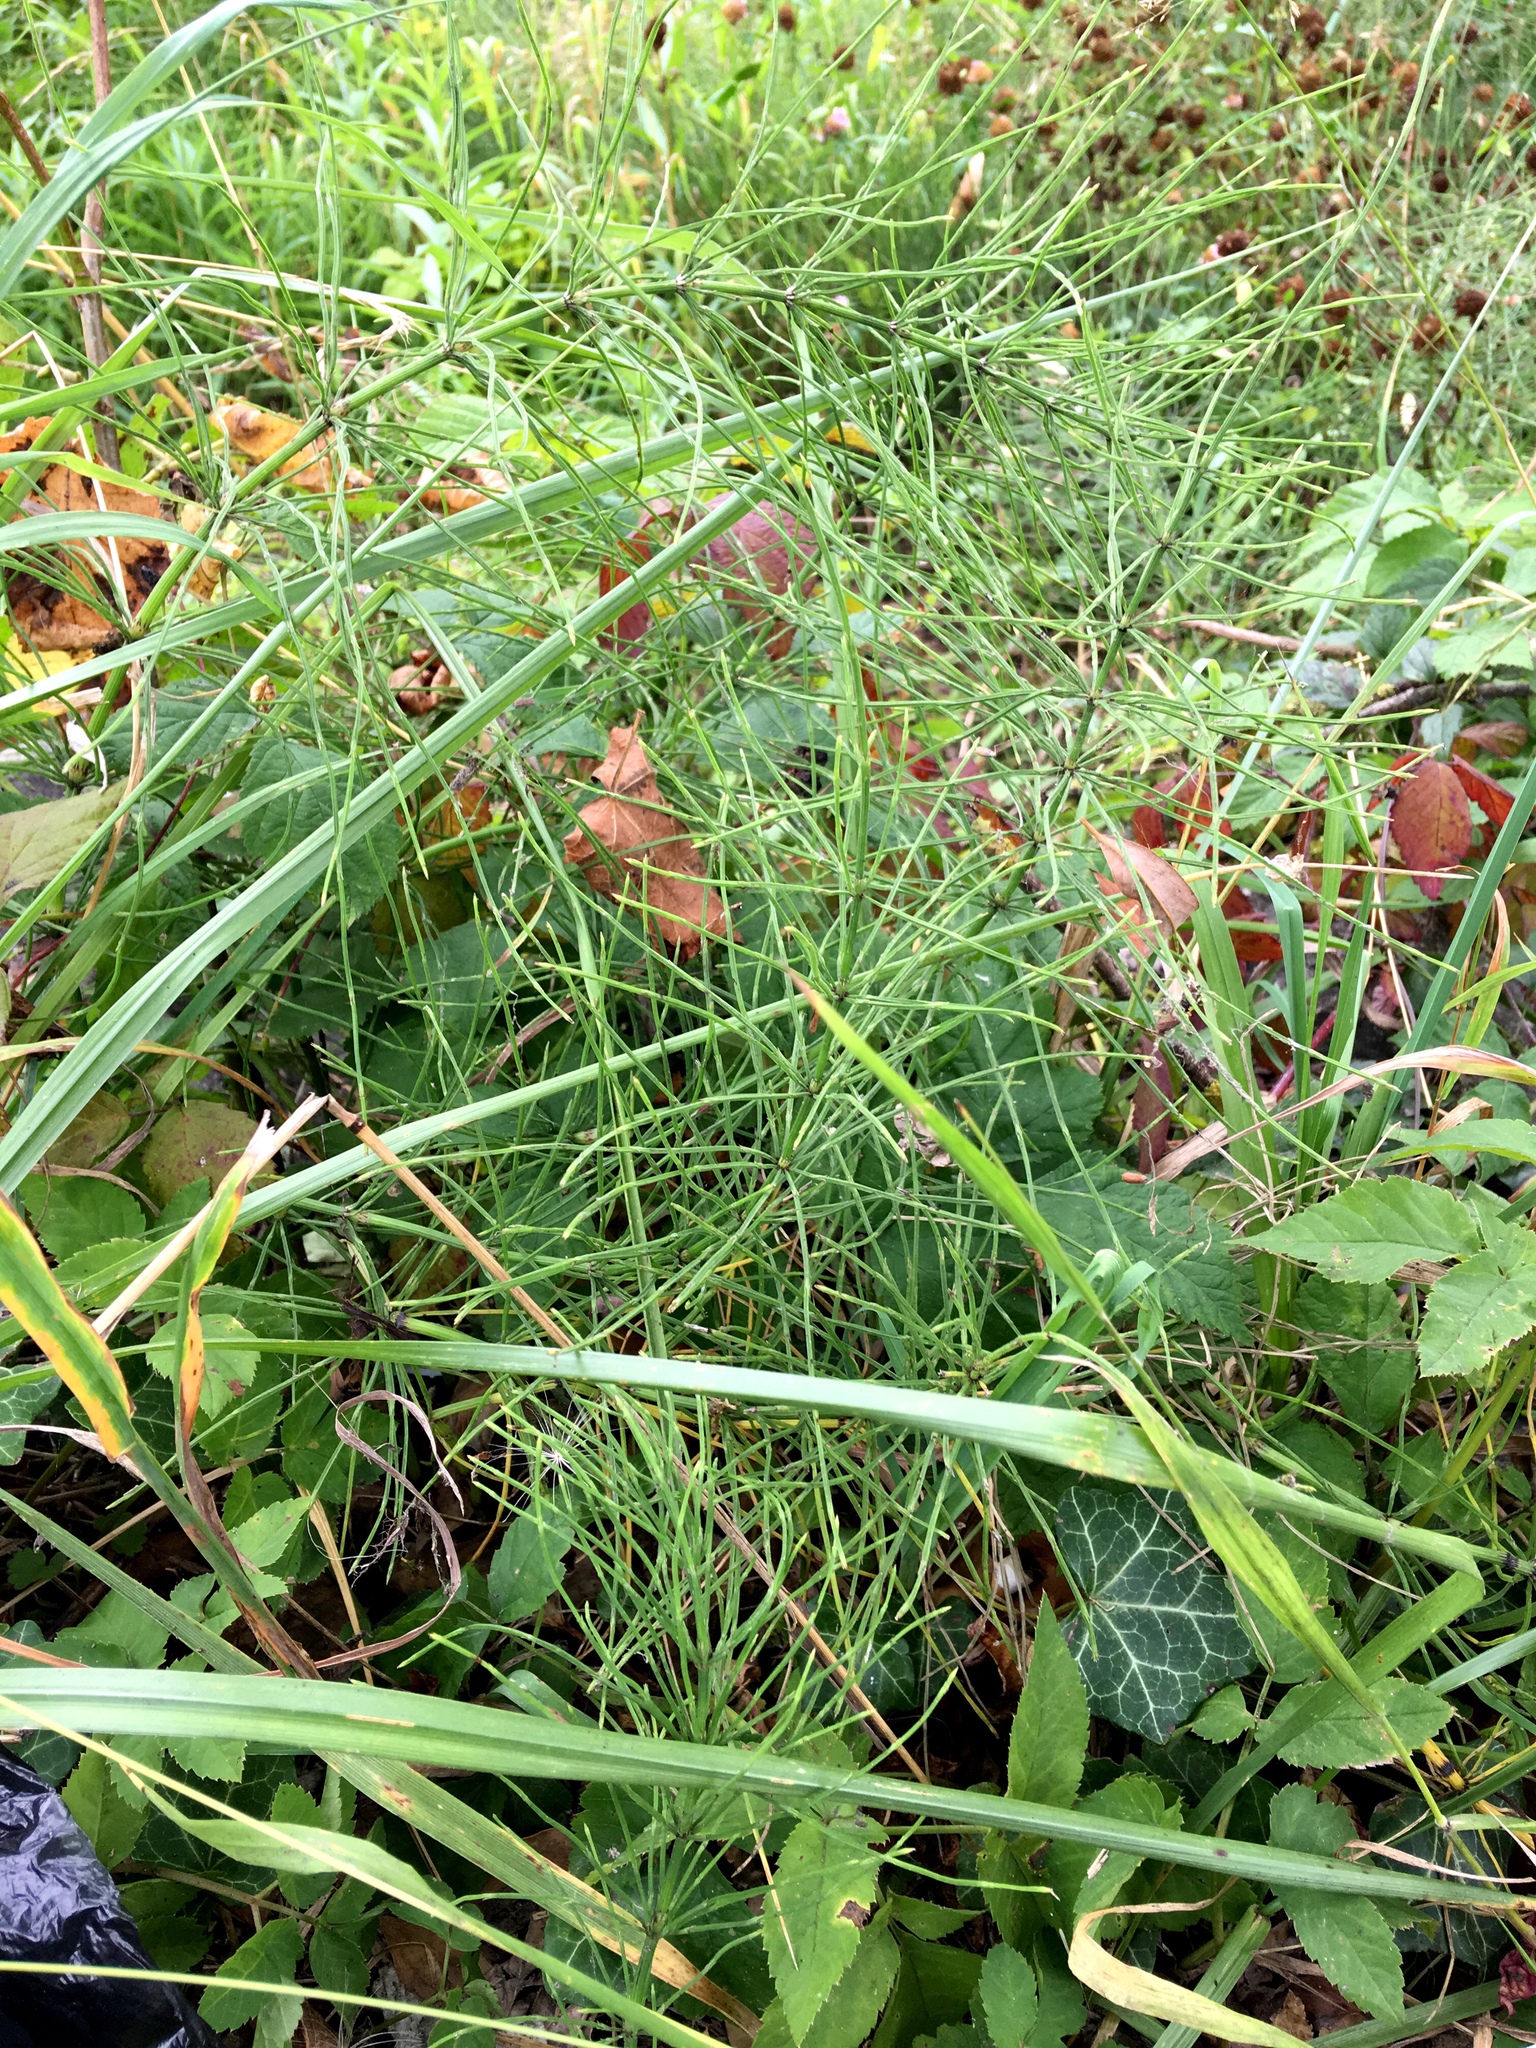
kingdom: Plantae
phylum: Tracheophyta
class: Polypodiopsida
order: Equisetales
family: Equisetaceae
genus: Equisetum
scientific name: Equisetum arvense
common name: Field horsetail
